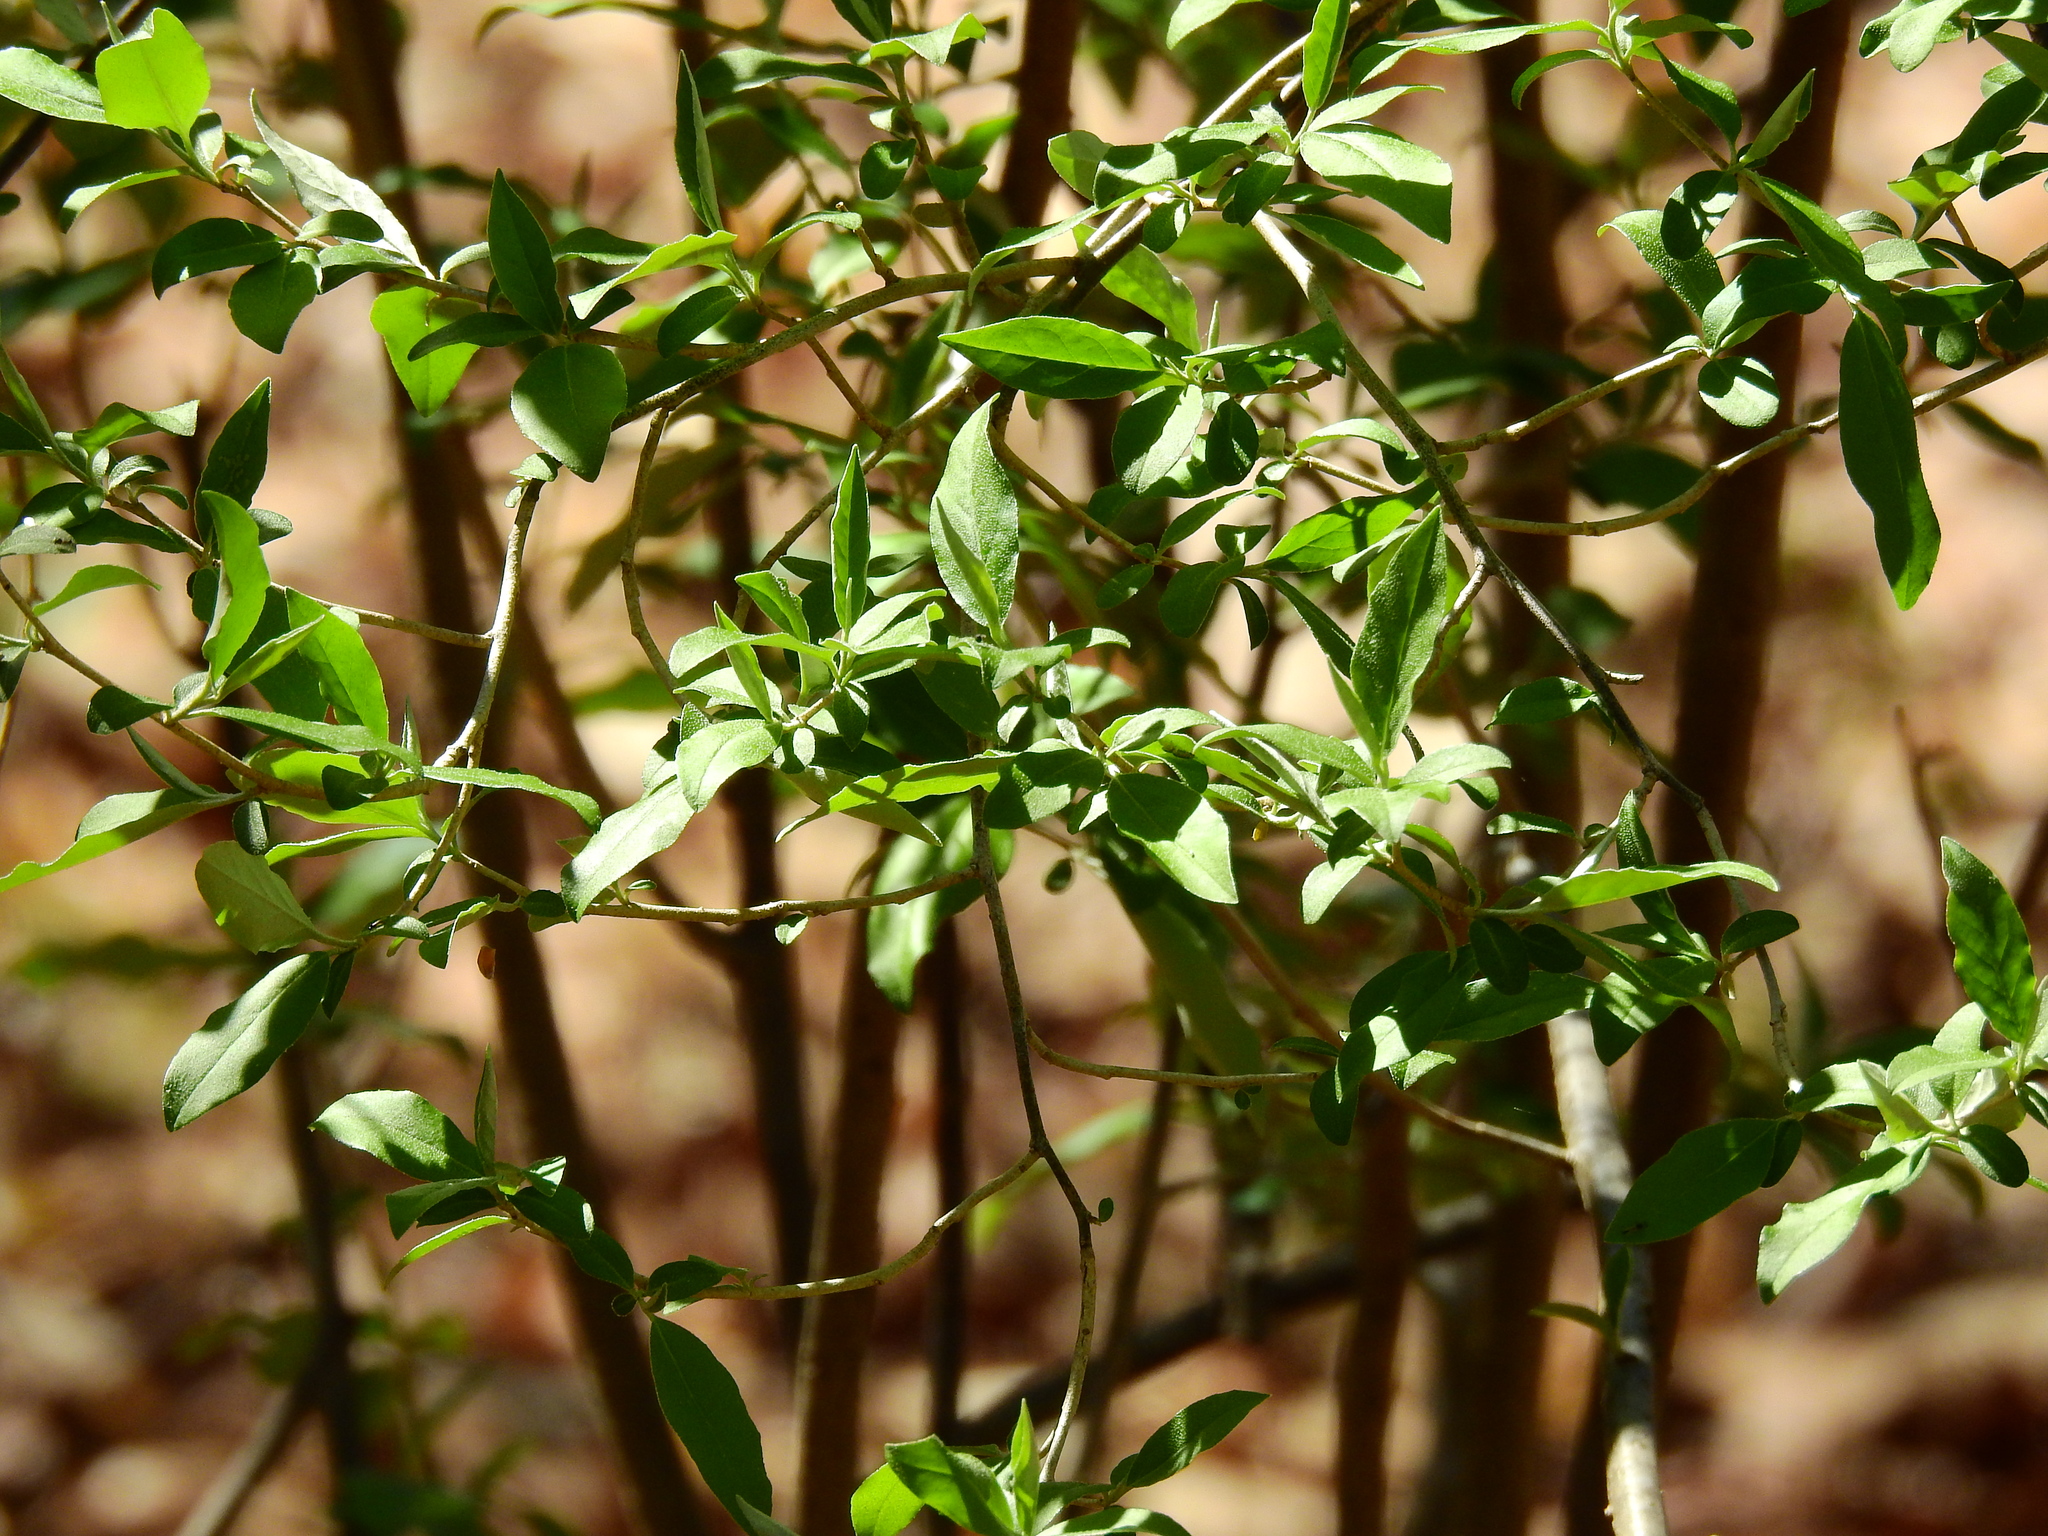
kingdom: Plantae
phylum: Tracheophyta
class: Magnoliopsida
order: Rosales
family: Elaeagnaceae
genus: Elaeagnus
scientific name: Elaeagnus umbellata
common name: Autumn olive
